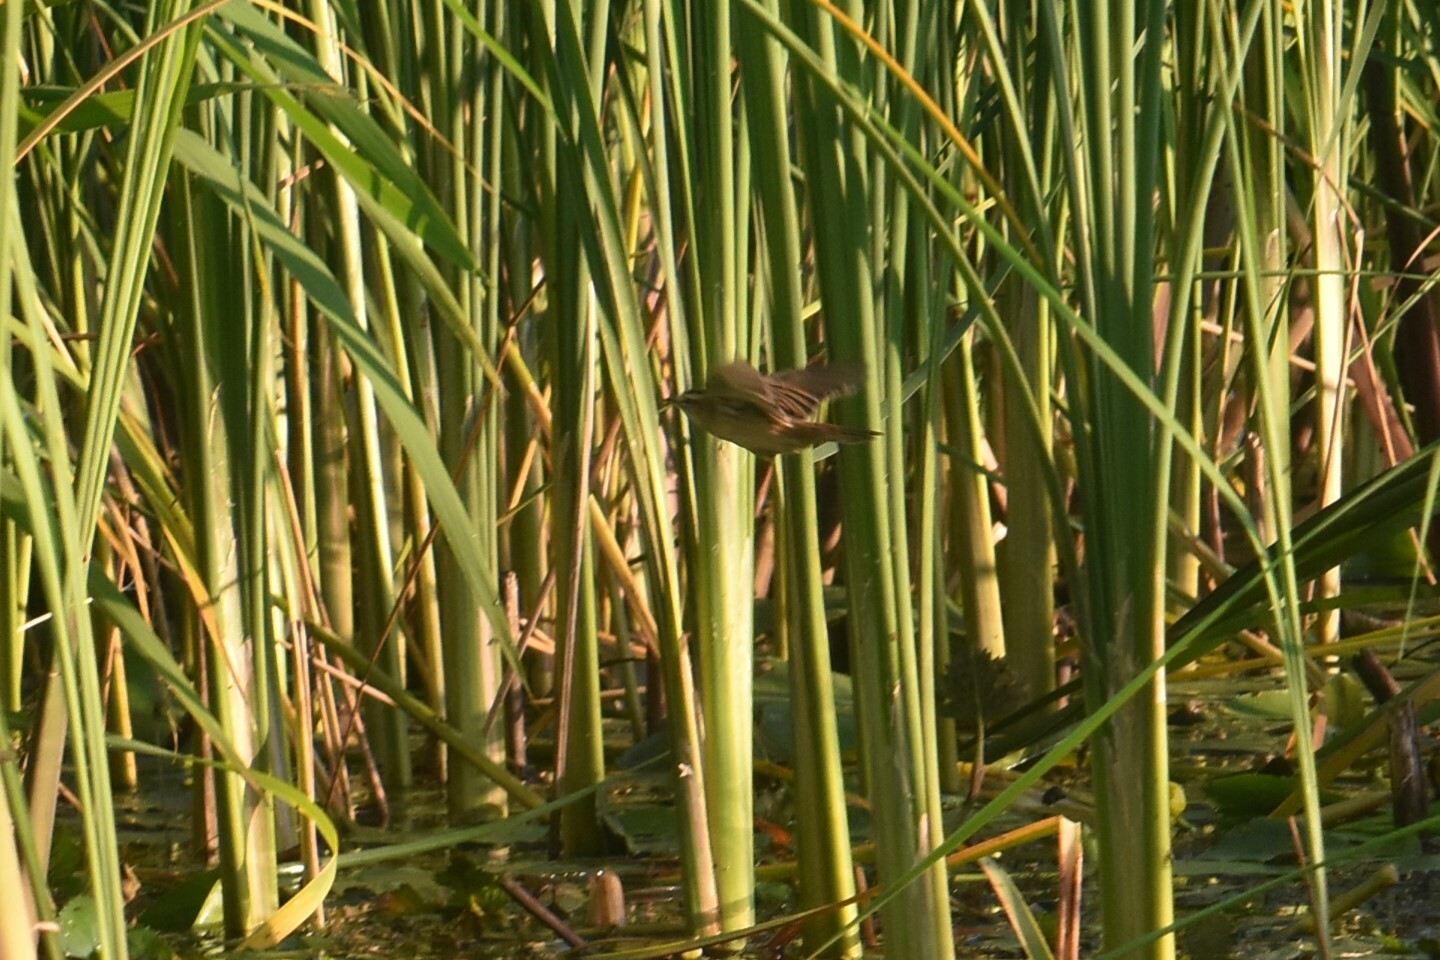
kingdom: Animalia
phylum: Chordata
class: Aves
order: Passeriformes
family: Acrocephalidae
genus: Acrocephalus
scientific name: Acrocephalus schoenobaenus
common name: Sedge warbler
